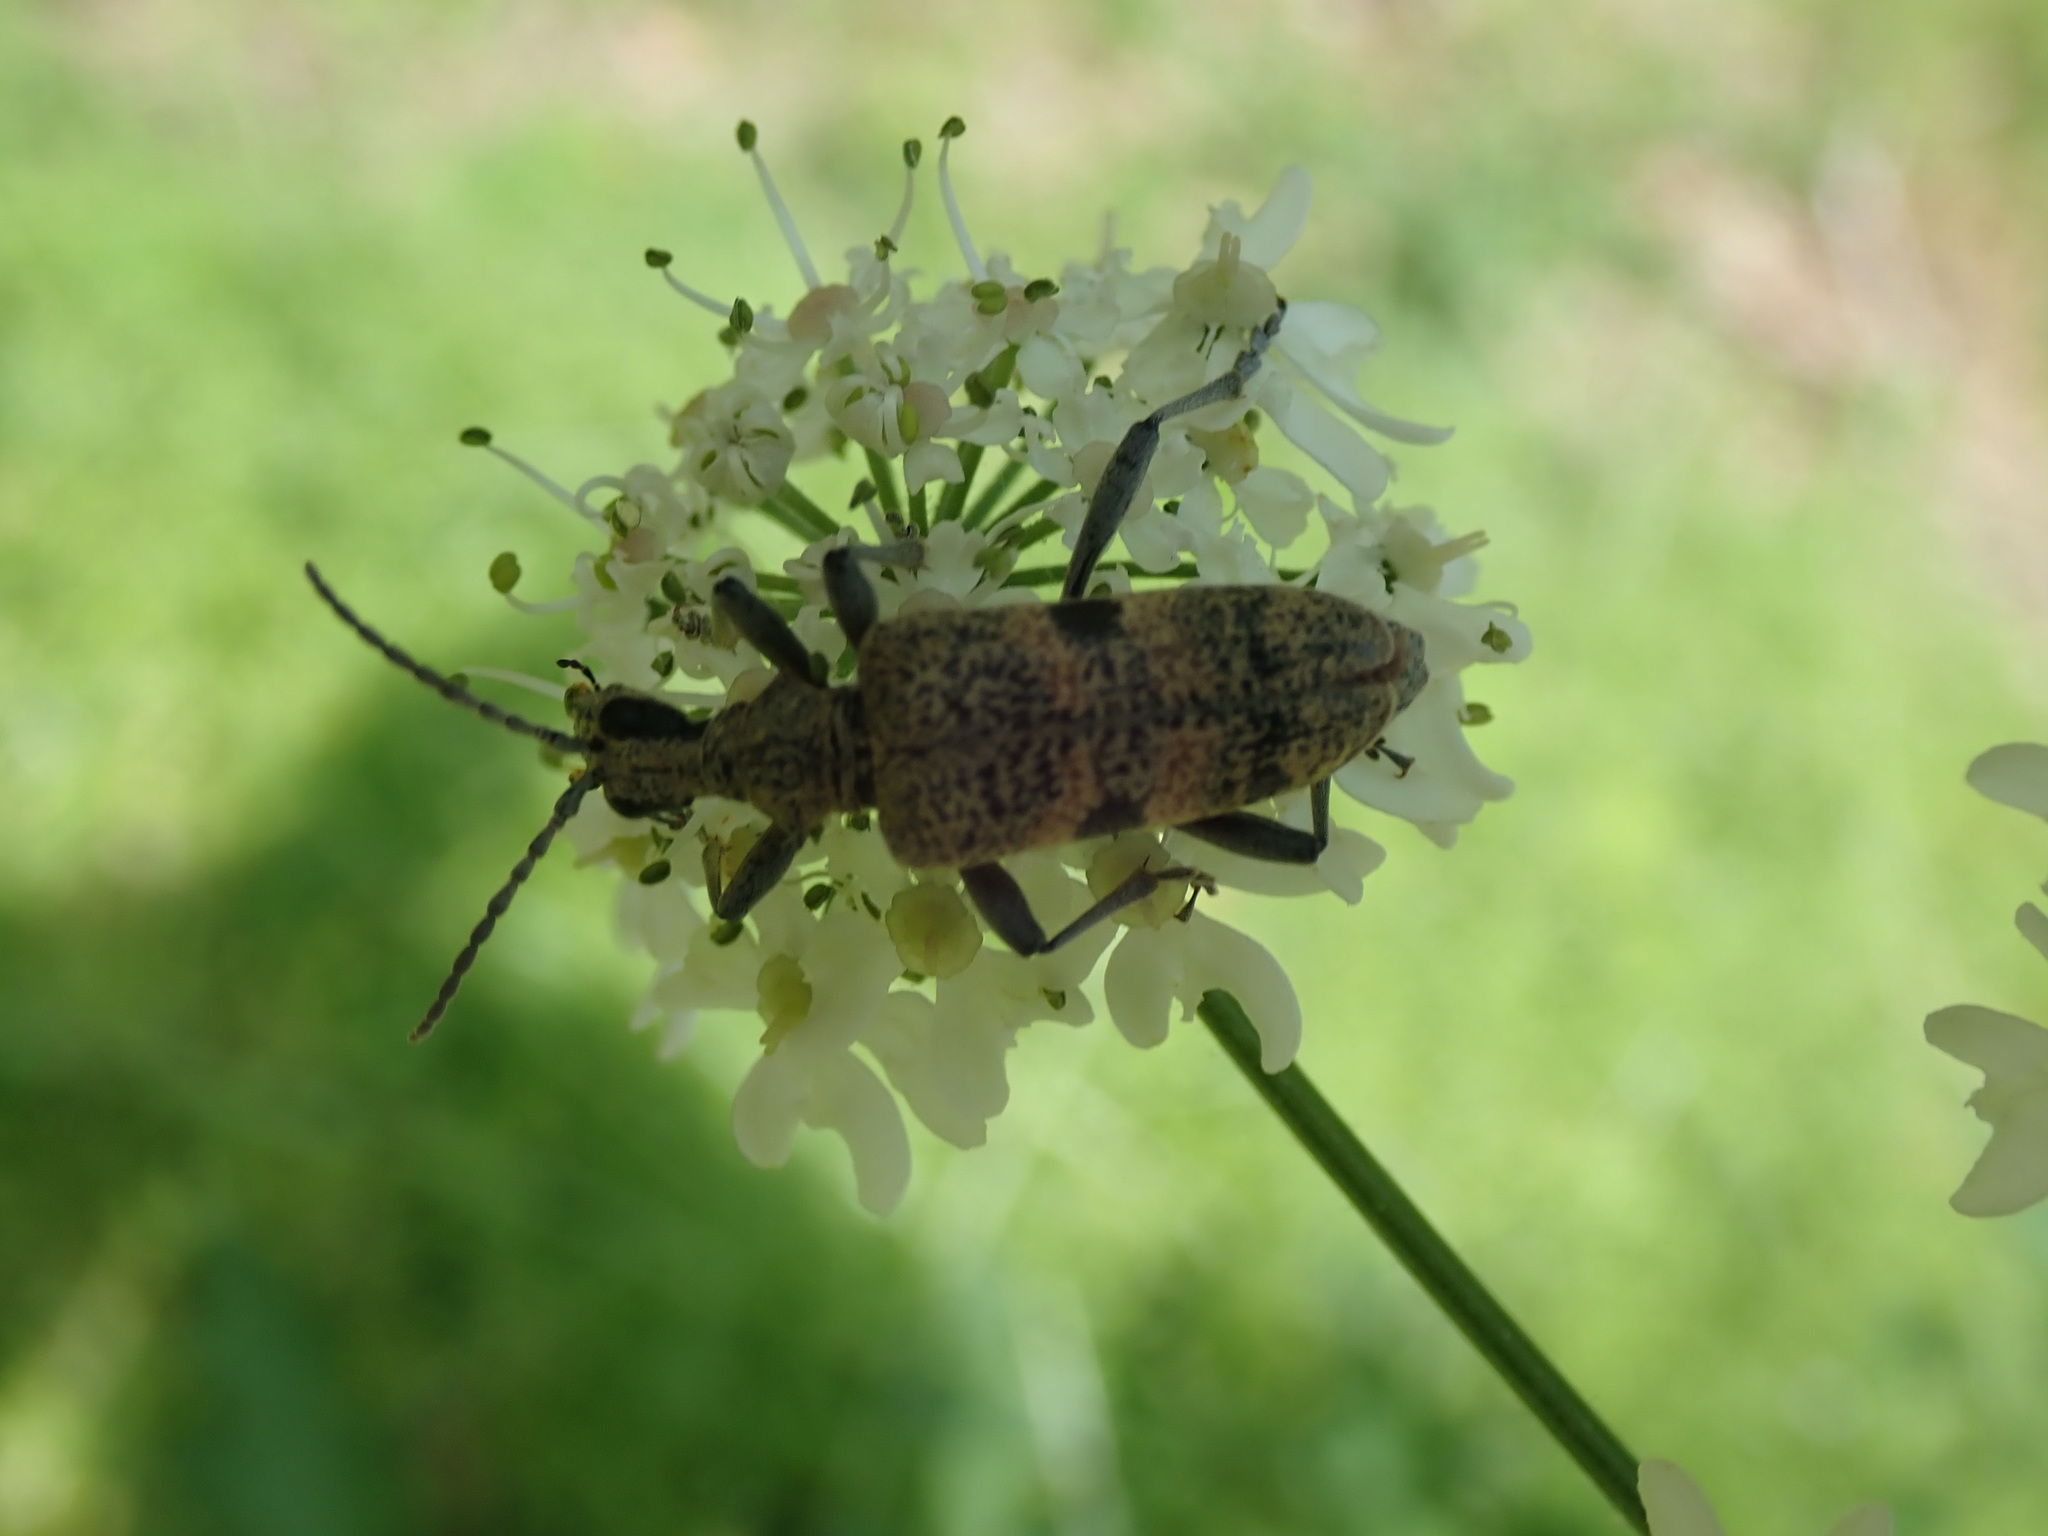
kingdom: Animalia
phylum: Arthropoda
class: Insecta
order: Coleoptera
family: Cerambycidae
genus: Rhagium
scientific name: Rhagium mordax
